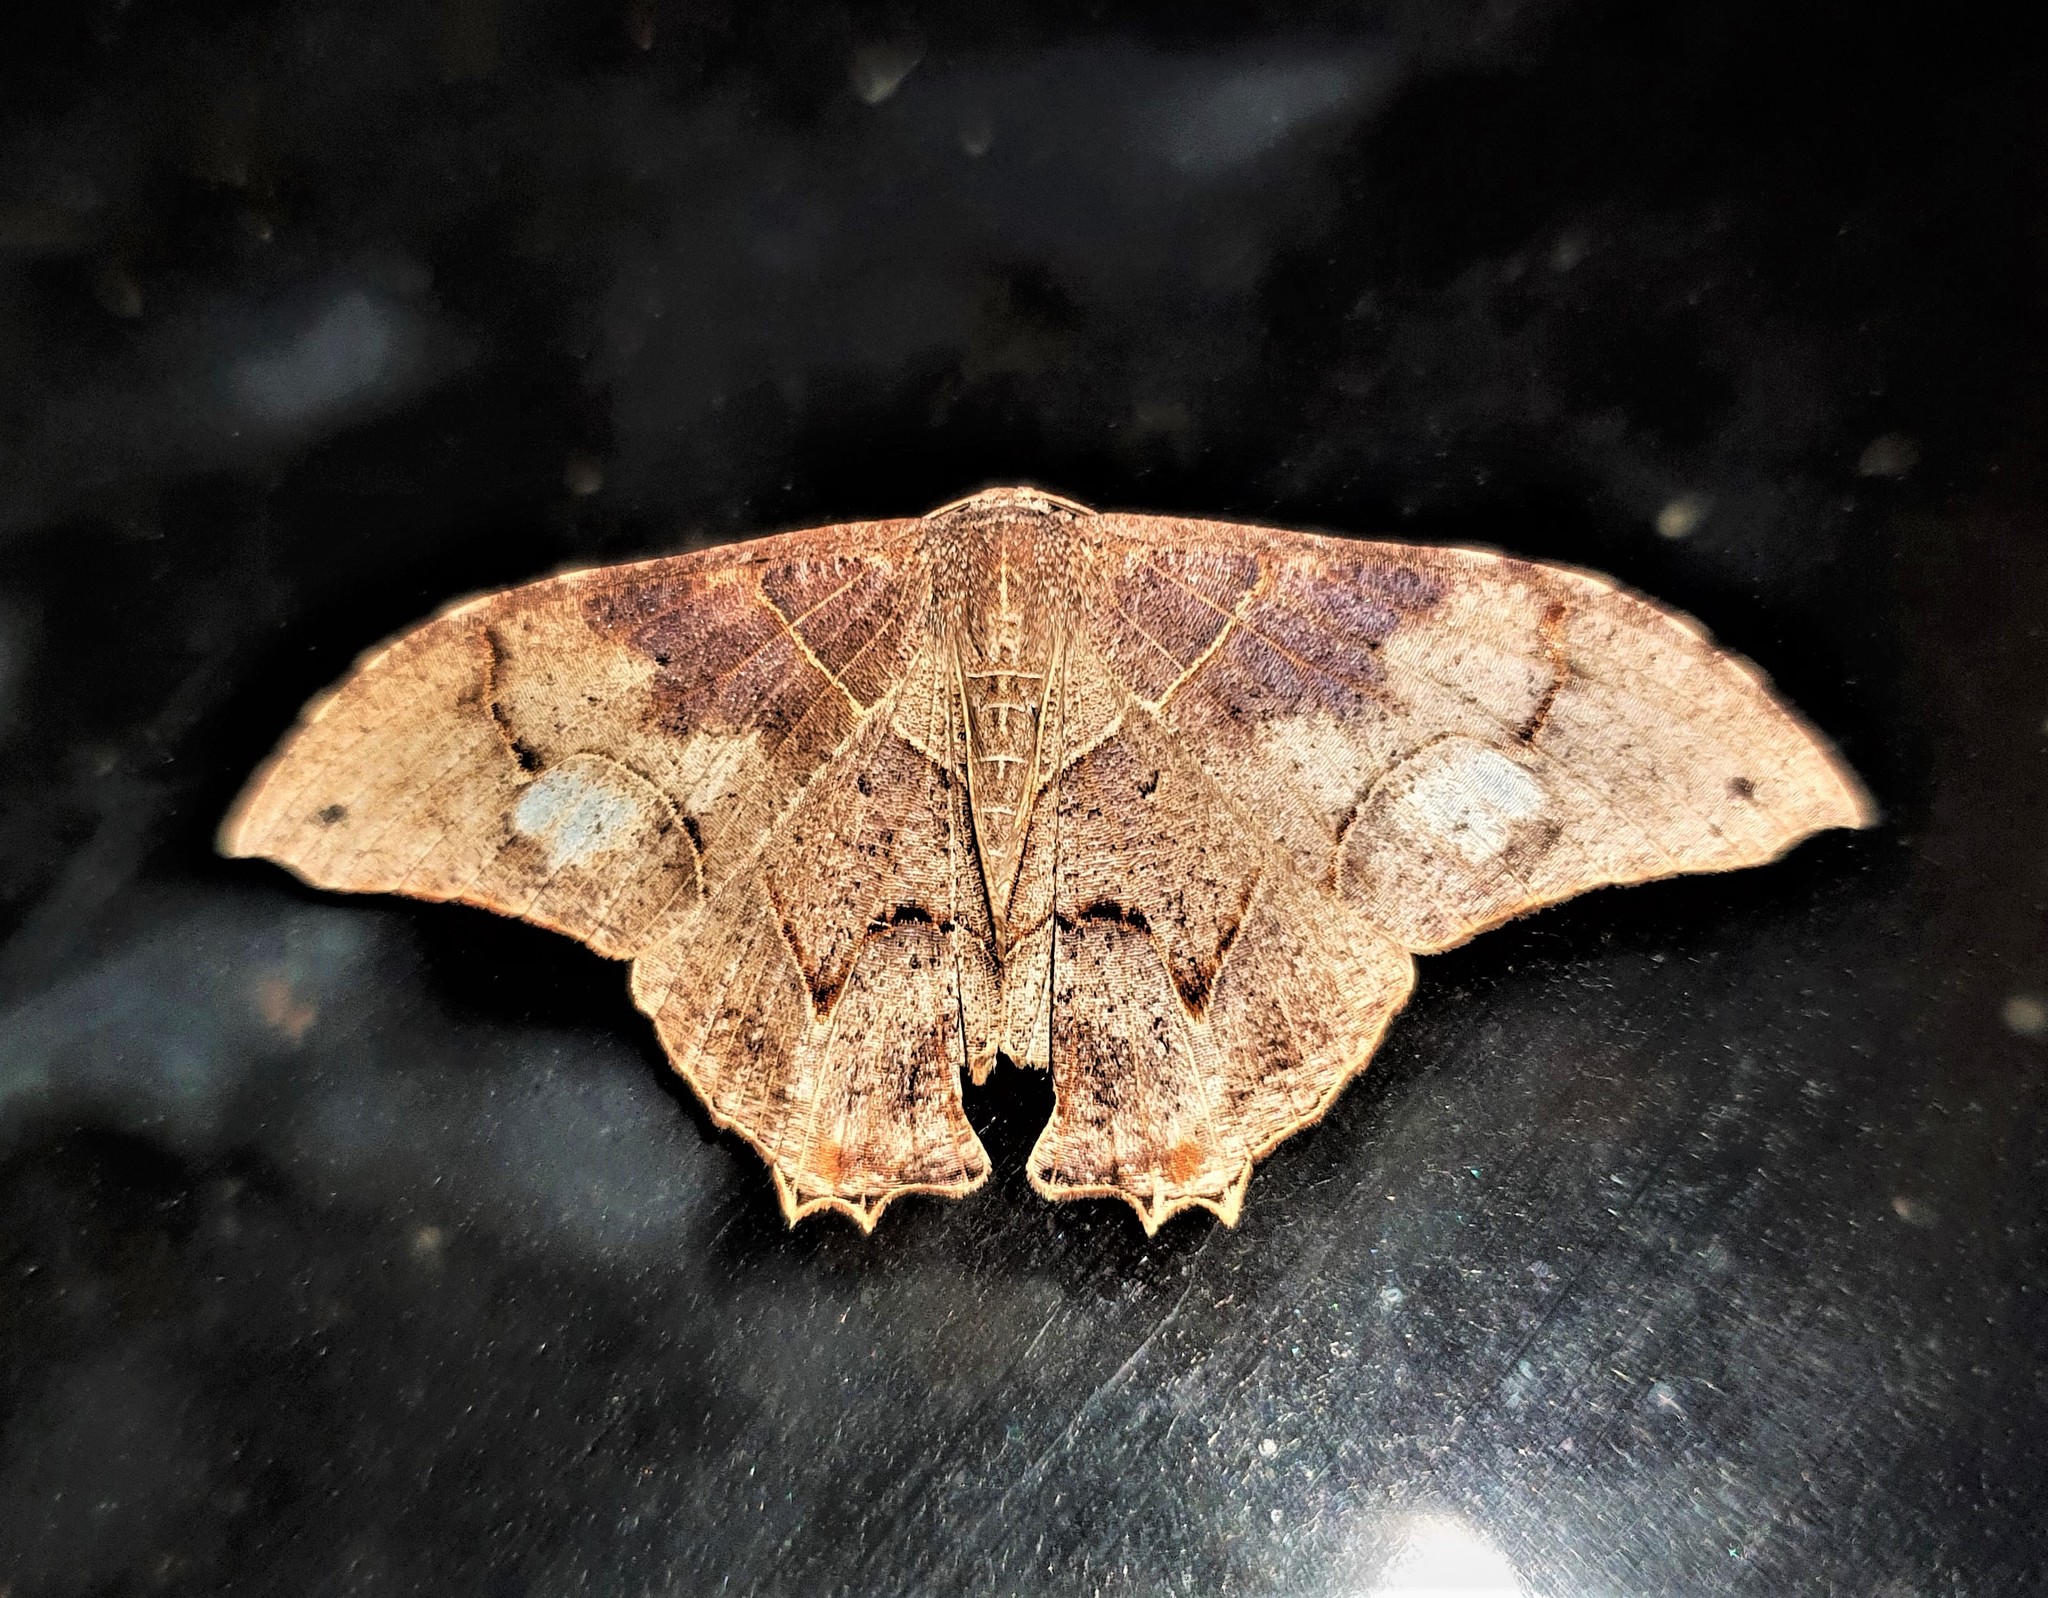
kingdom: Animalia
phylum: Arthropoda
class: Insecta
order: Lepidoptera
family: Uraniidae
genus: Syngria
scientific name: Syngria druidaria
